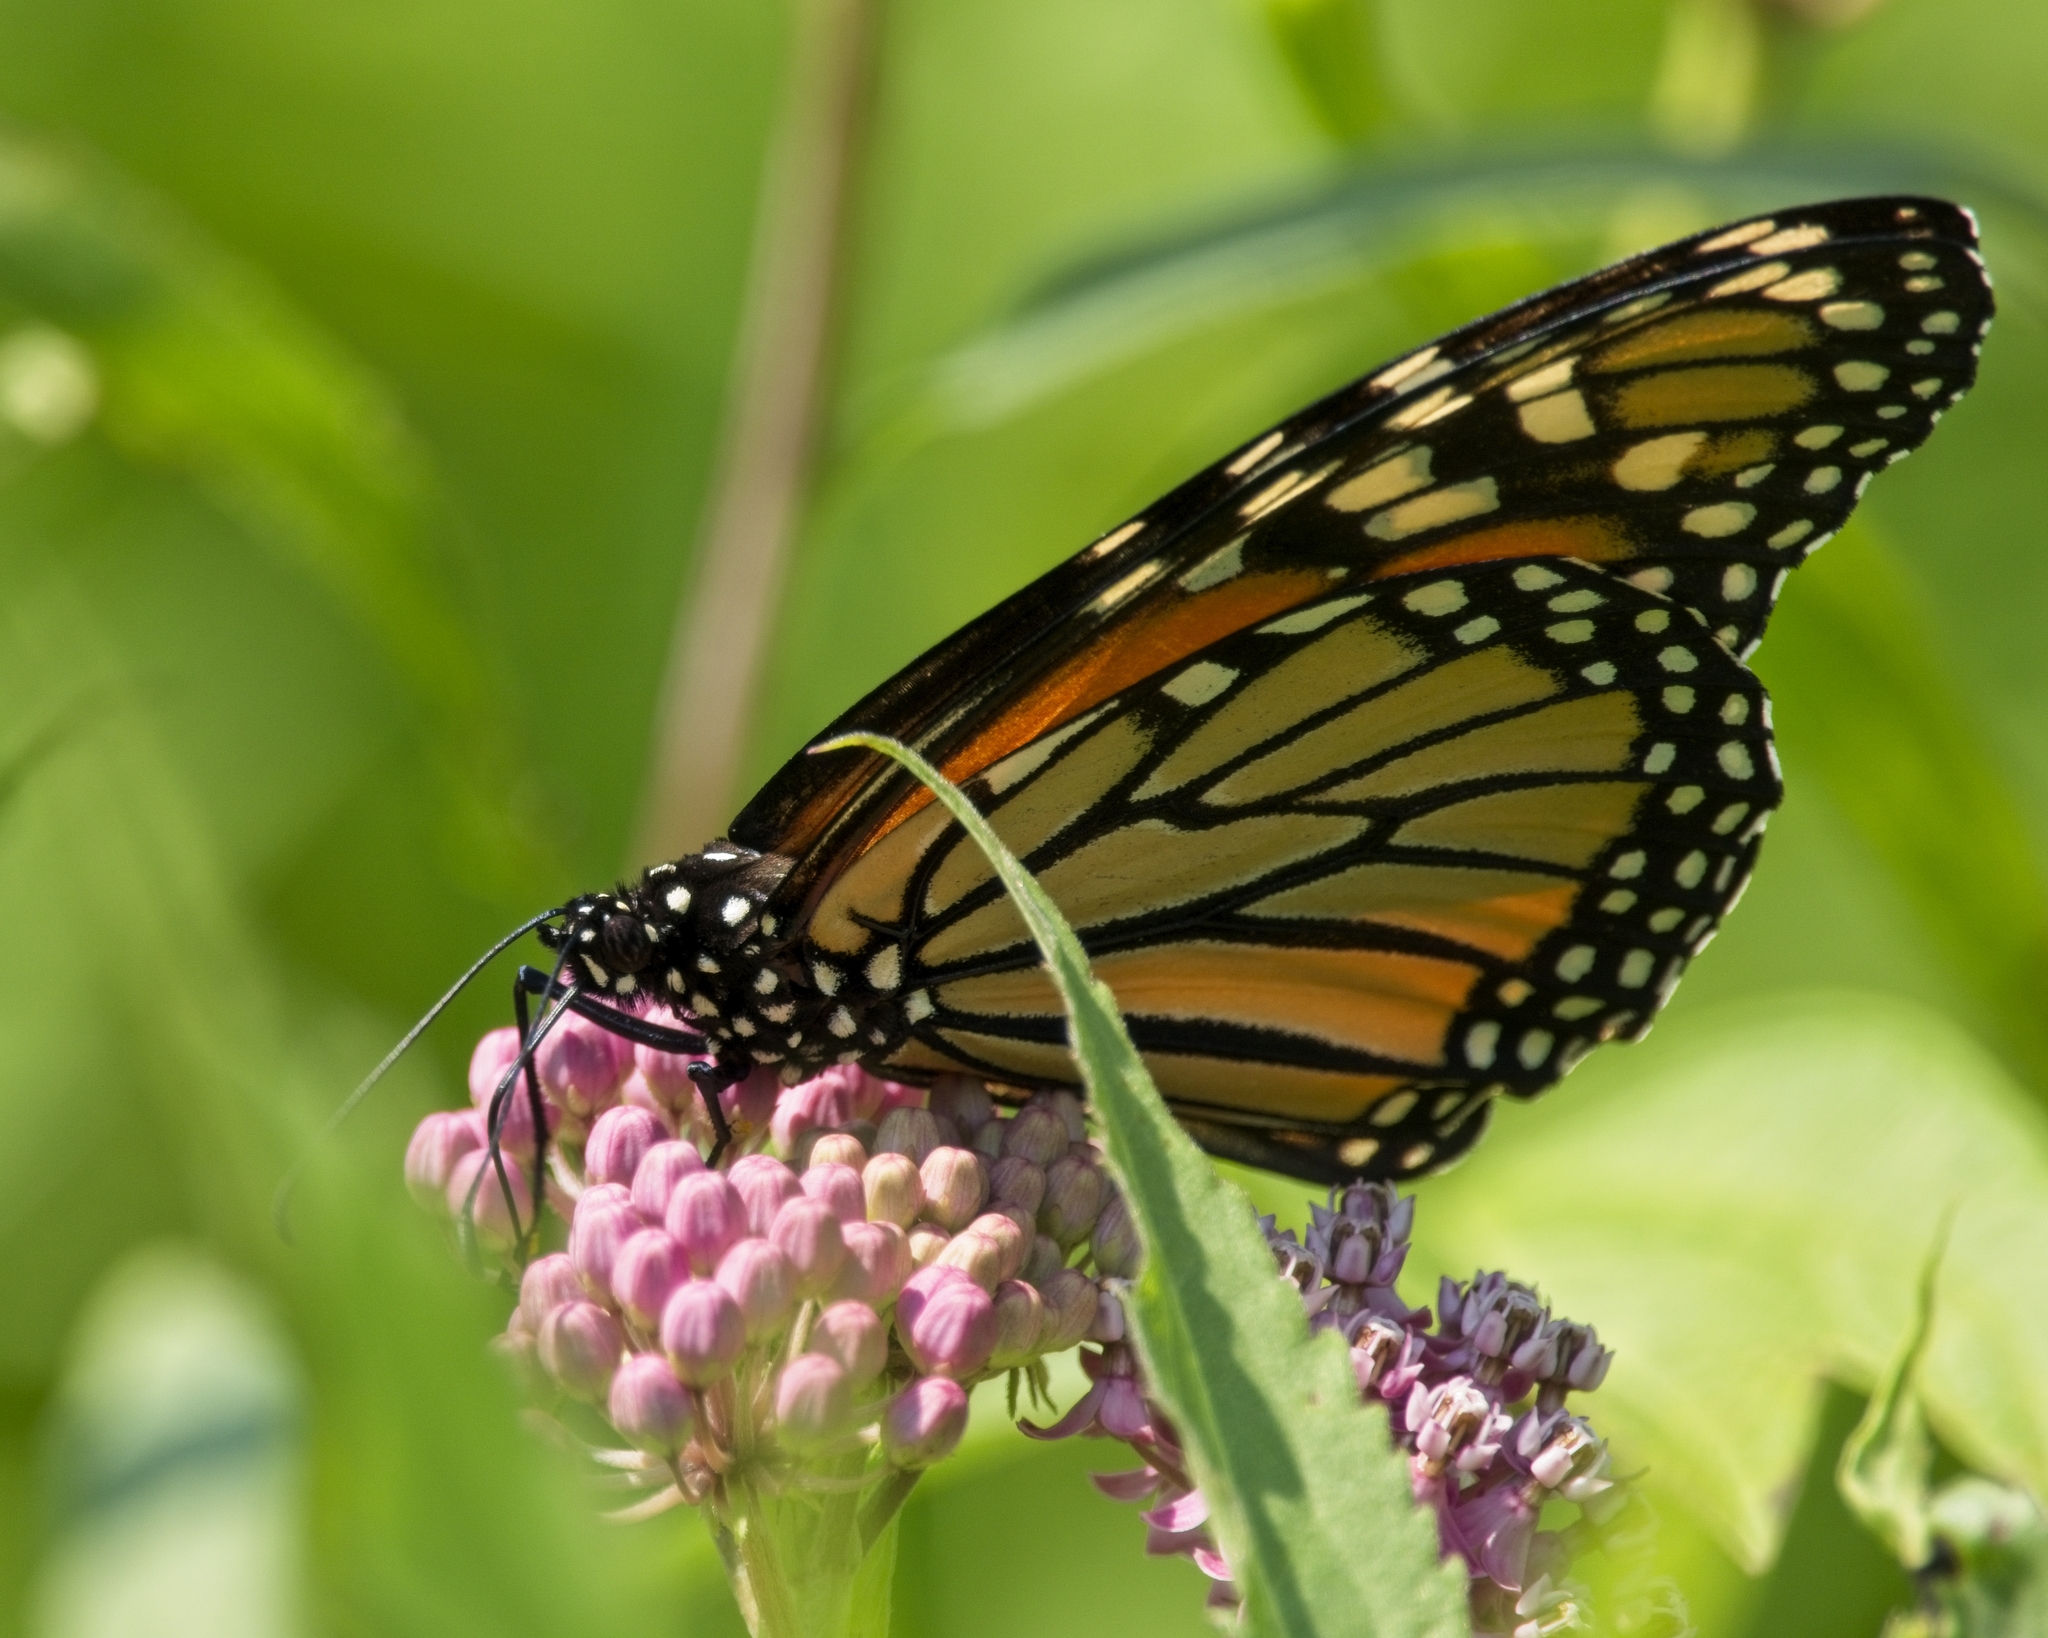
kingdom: Animalia
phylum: Arthropoda
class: Insecta
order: Lepidoptera
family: Nymphalidae
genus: Danaus
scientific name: Danaus plexippus
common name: Monarch
